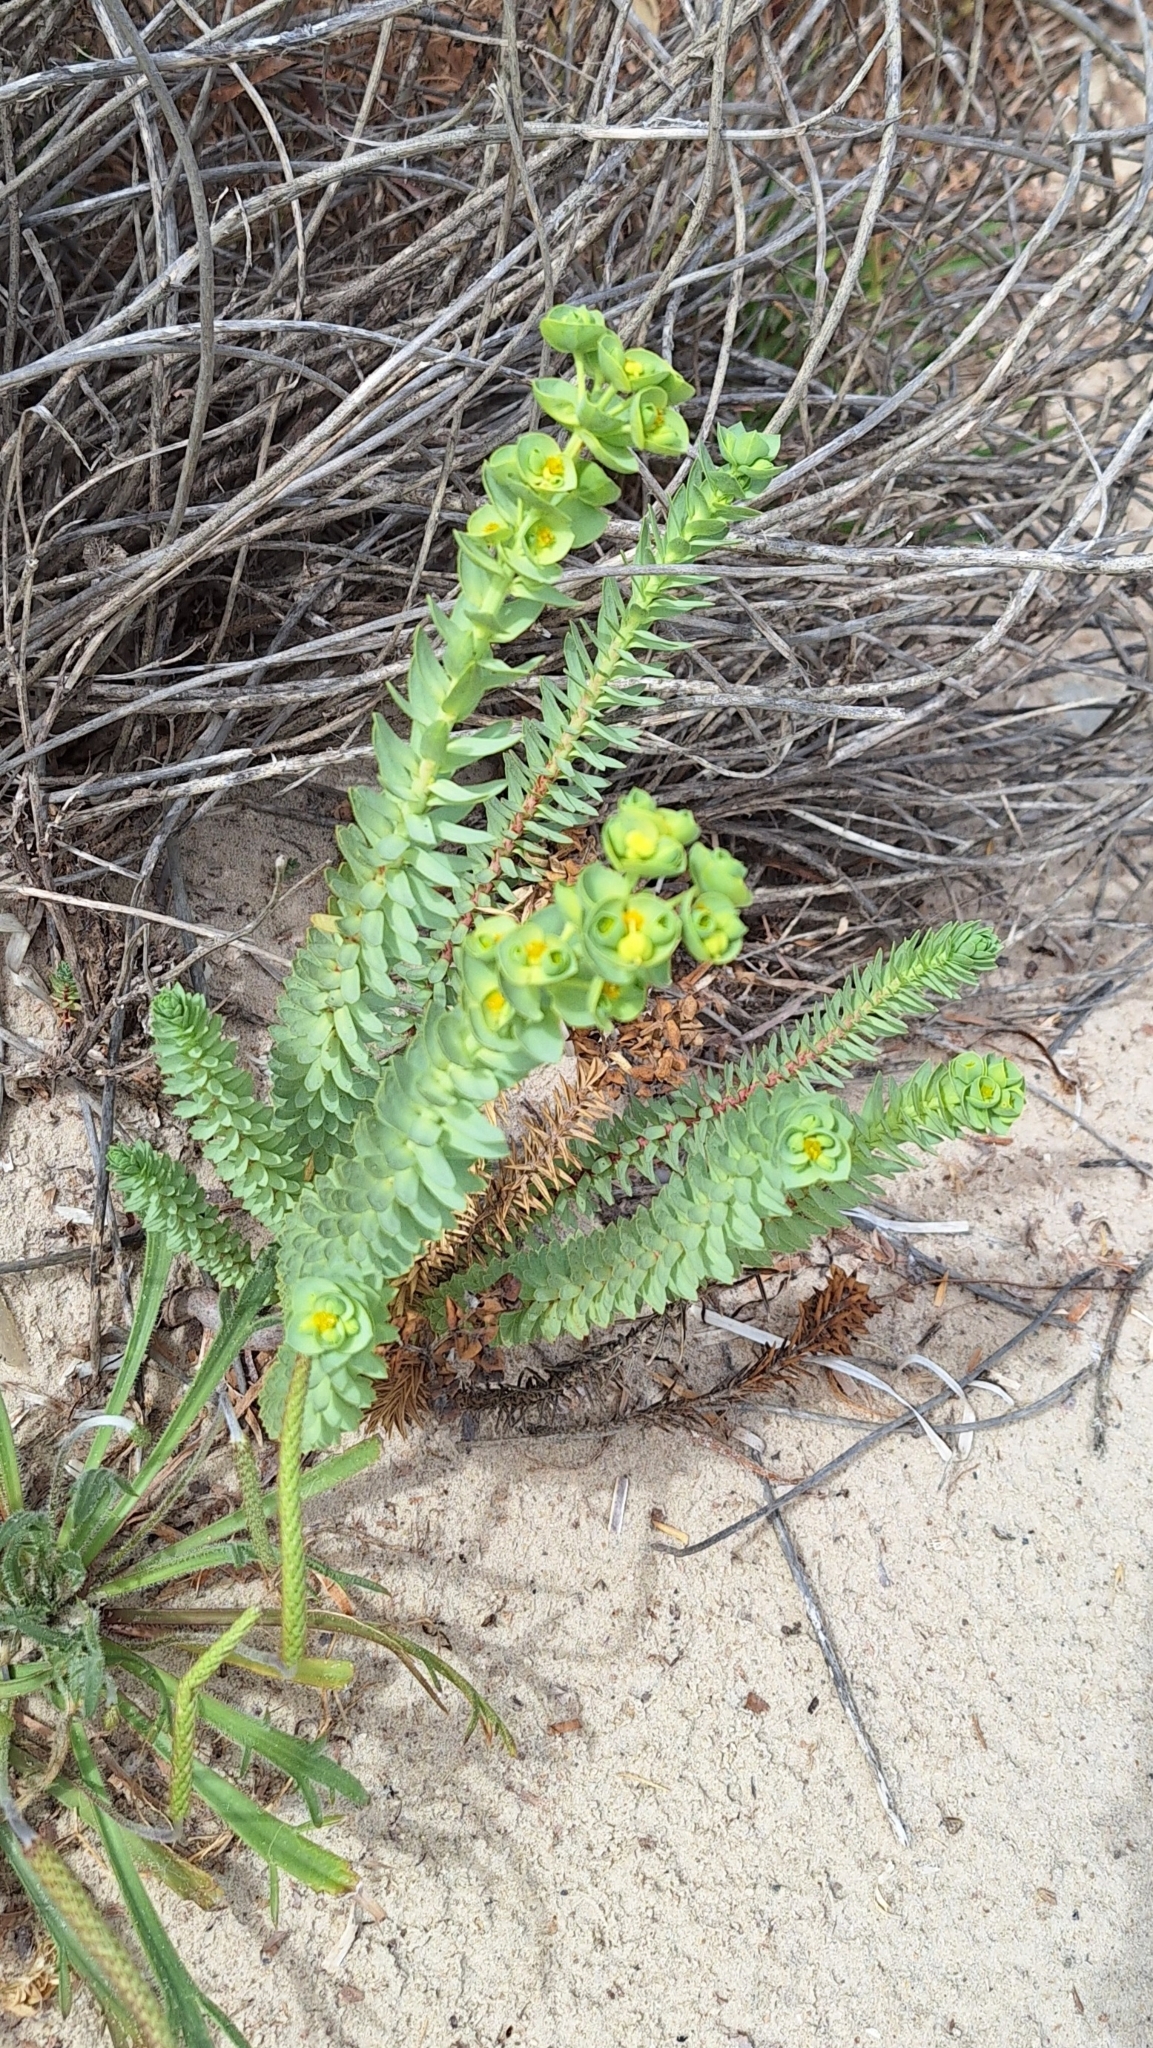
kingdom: Plantae
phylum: Tracheophyta
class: Magnoliopsida
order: Malpighiales
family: Euphorbiaceae
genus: Euphorbia
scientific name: Euphorbia paralias
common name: Sea spurge
